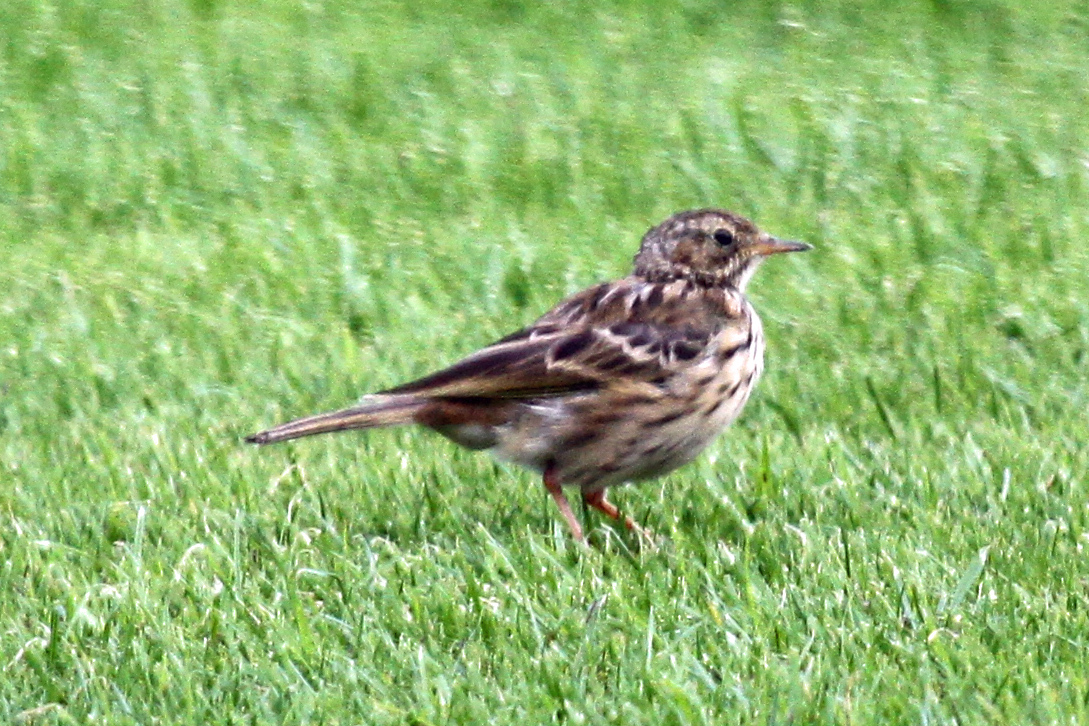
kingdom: Animalia
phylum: Chordata
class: Aves
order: Passeriformes
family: Motacillidae
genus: Anthus
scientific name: Anthus pratensis
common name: Meadow pipit
